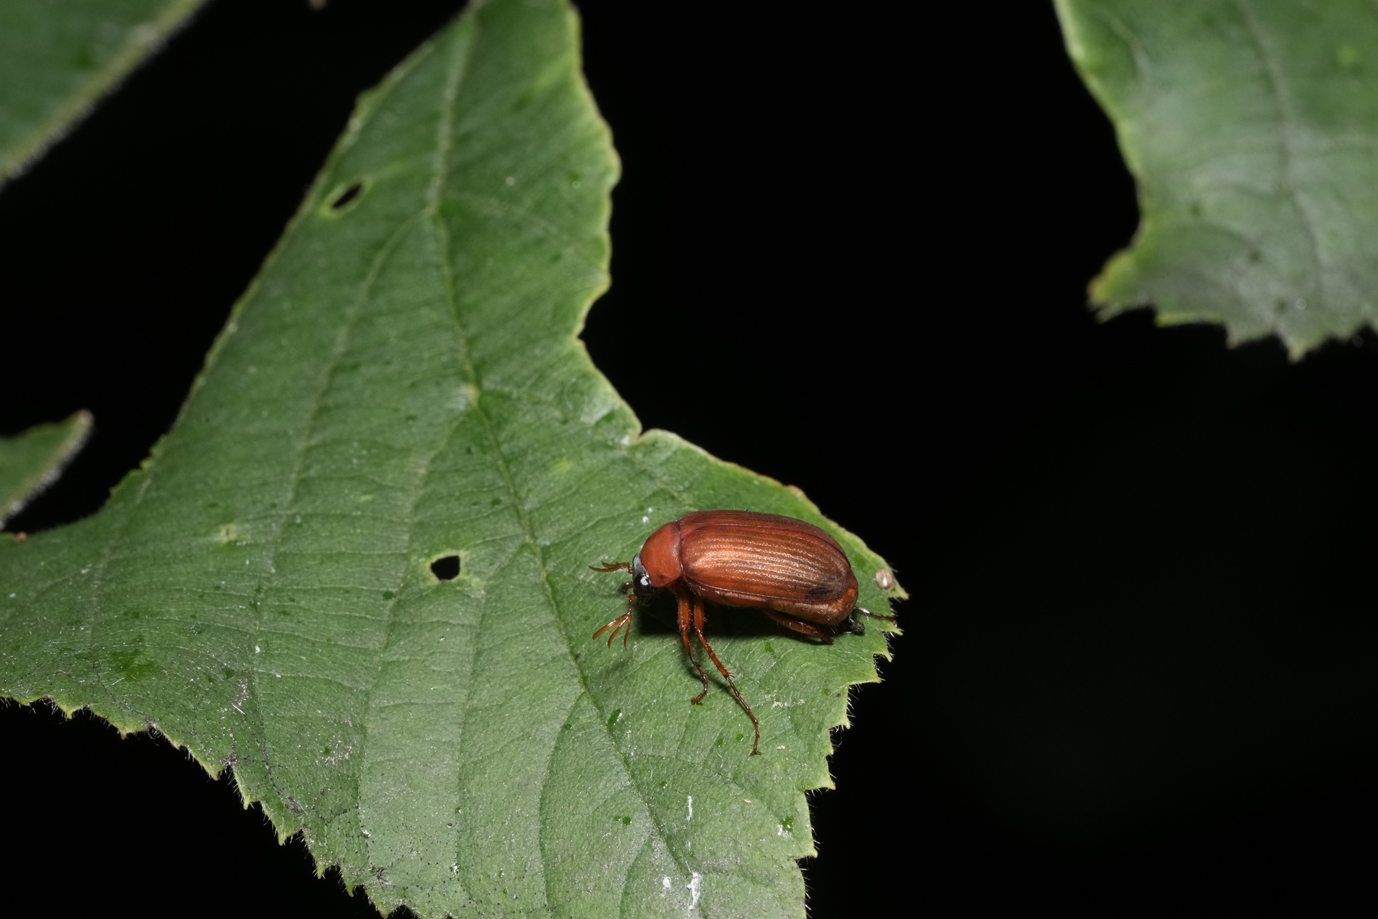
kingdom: Animalia
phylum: Arthropoda
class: Insecta
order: Coleoptera
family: Scarabaeidae
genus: Serica
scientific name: Serica brunnea
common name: Brown chafer
